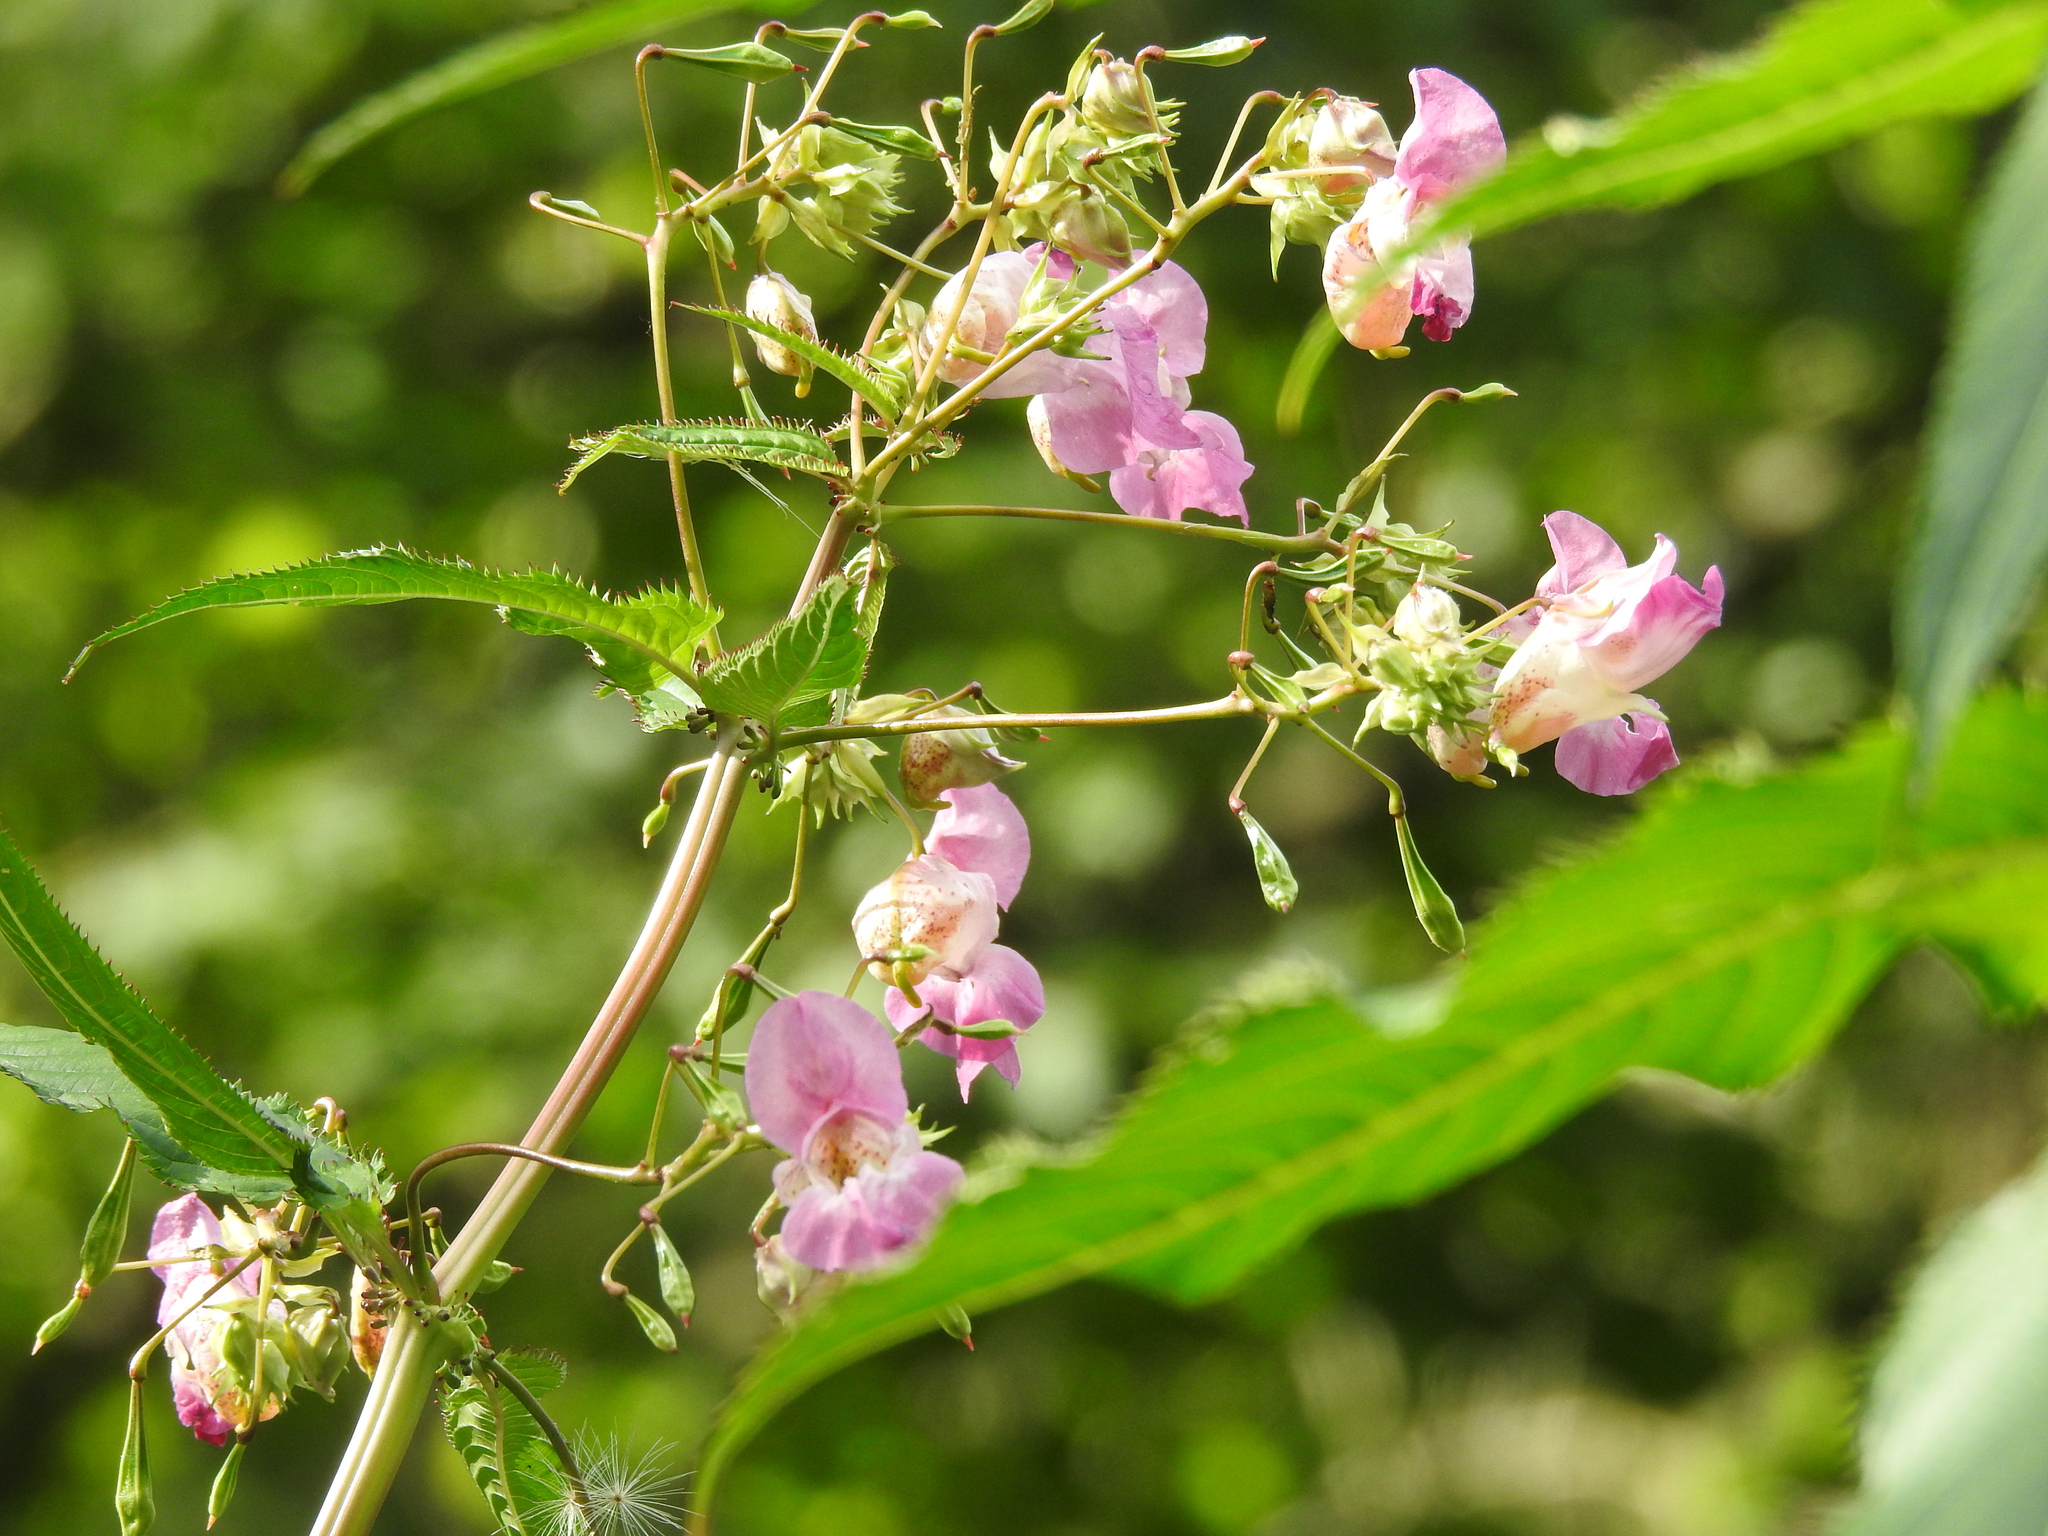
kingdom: Plantae
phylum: Tracheophyta
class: Magnoliopsida
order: Ericales
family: Balsaminaceae
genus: Impatiens
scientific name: Impatiens glandulifera
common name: Himalayan balsam
